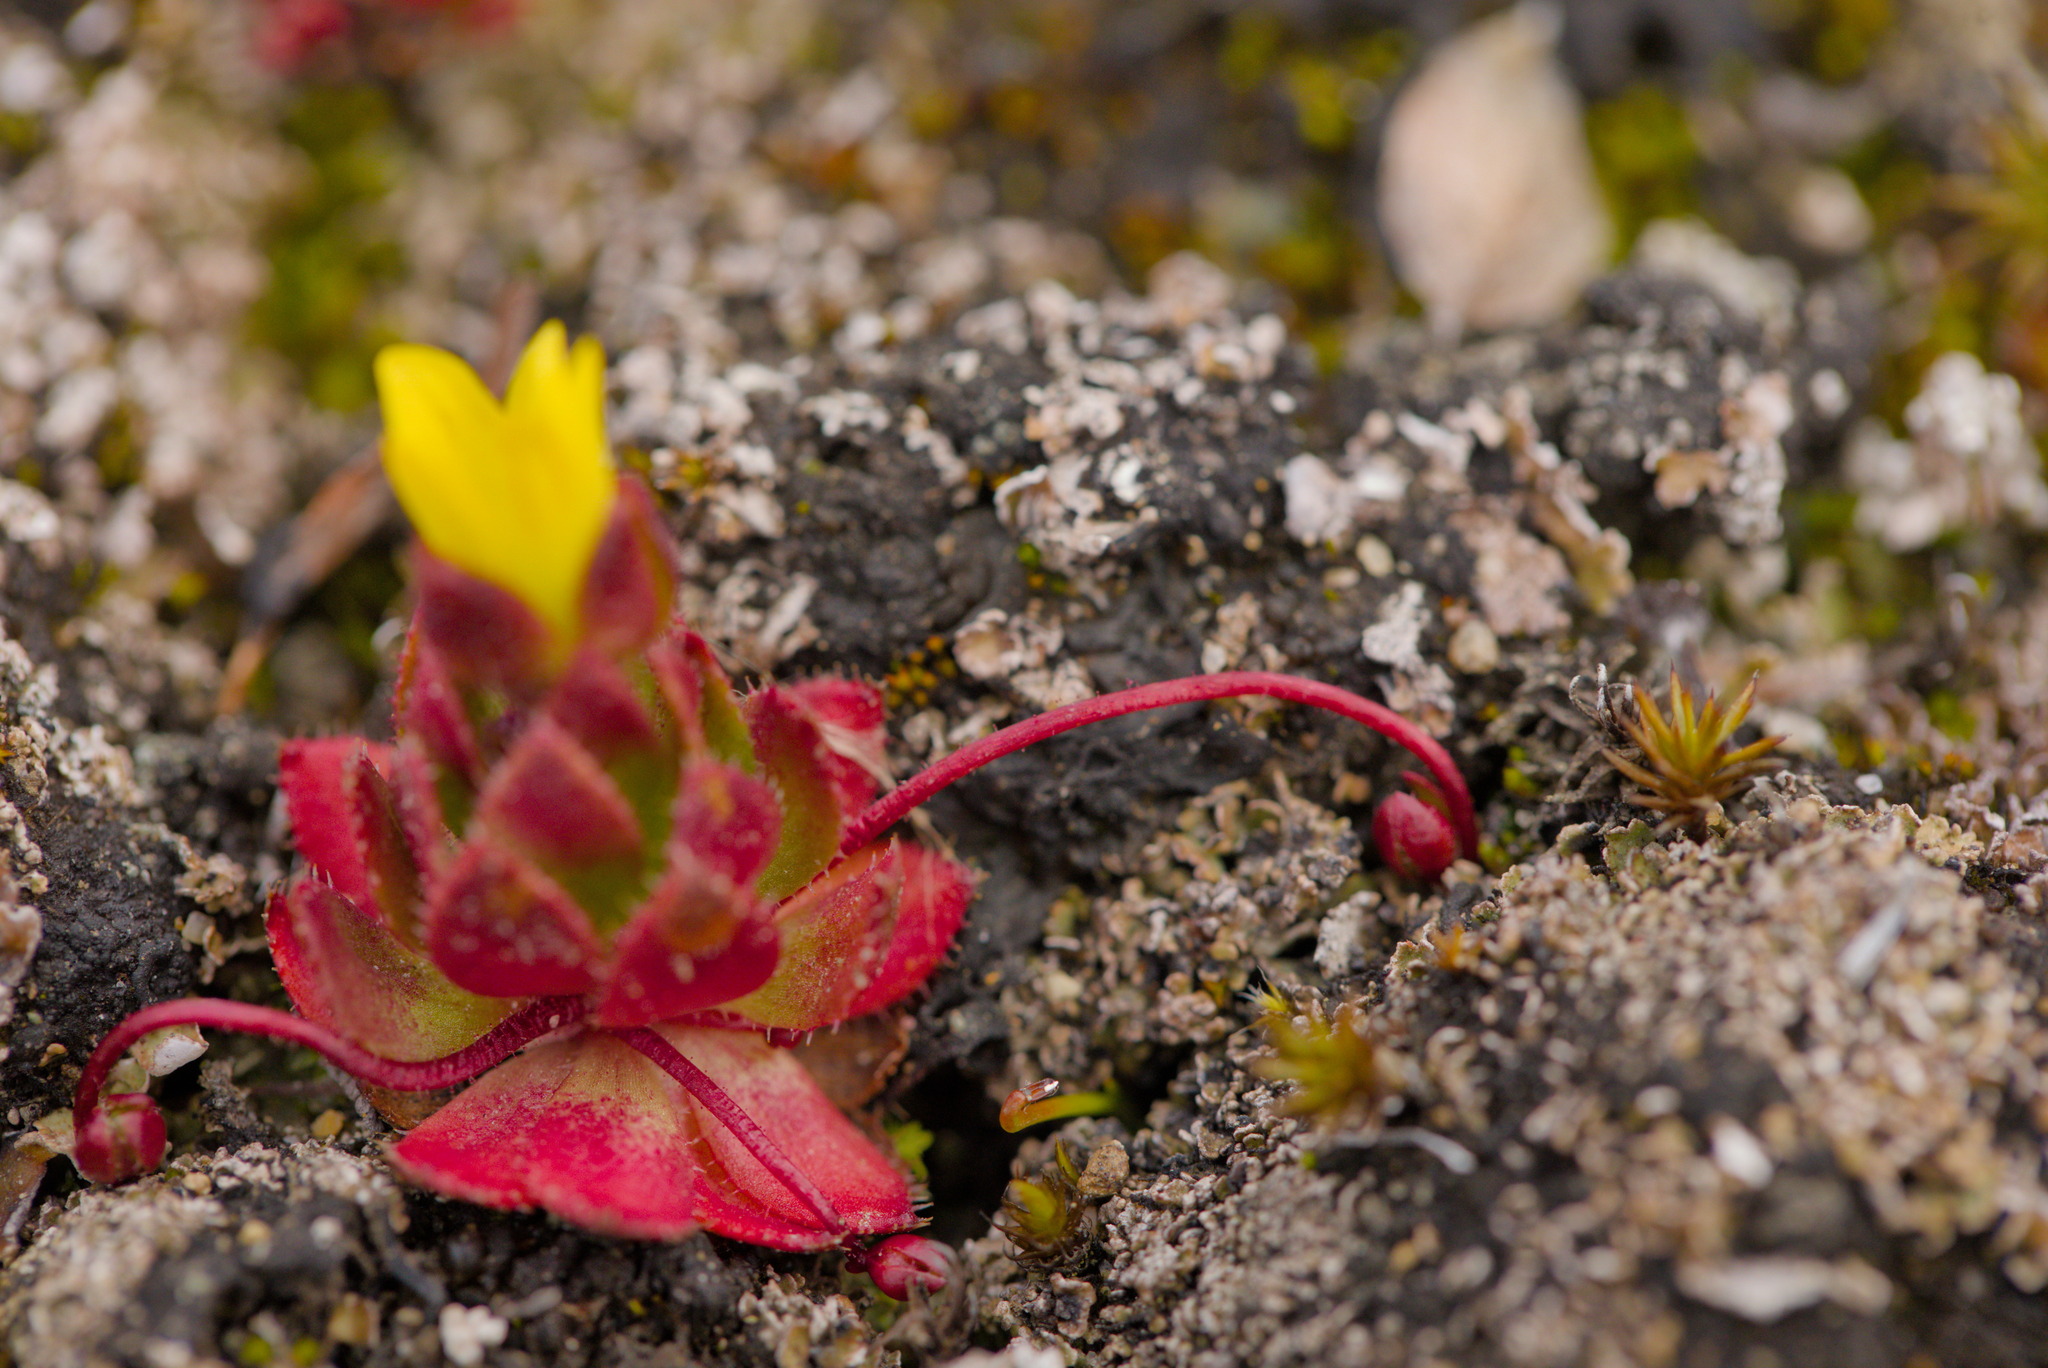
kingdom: Plantae
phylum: Tracheophyta
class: Magnoliopsida
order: Saxifragales
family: Saxifragaceae
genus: Saxifraga
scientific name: Saxifraga flagellaris
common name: Spider saxifrage
